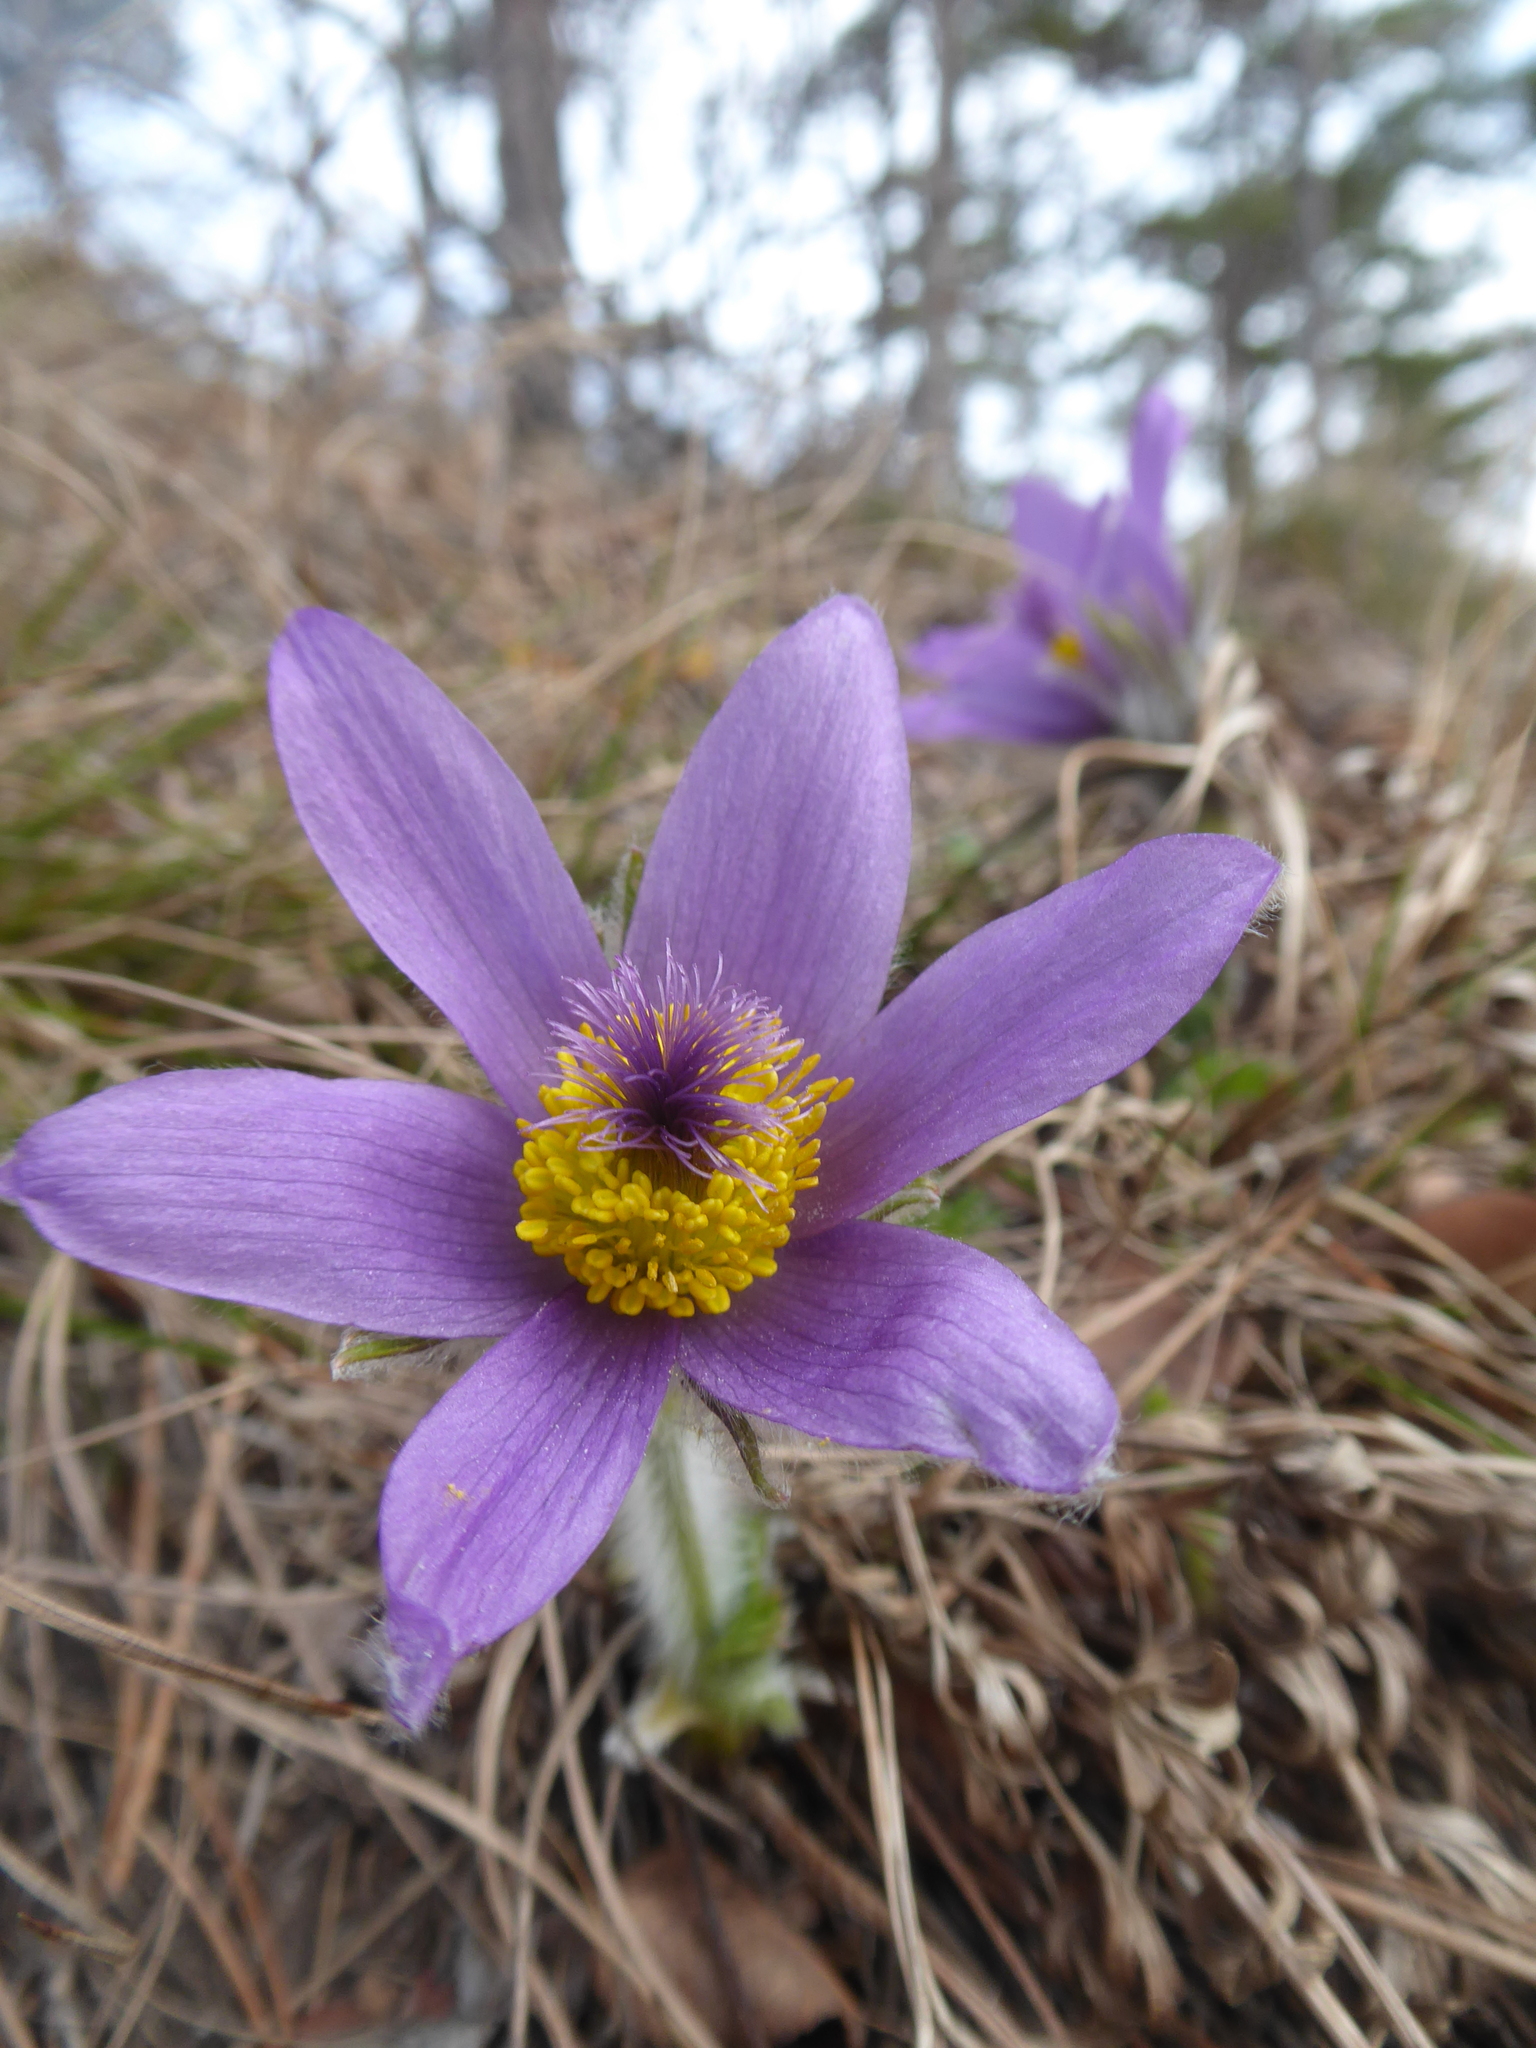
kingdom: Plantae
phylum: Tracheophyta
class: Magnoliopsida
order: Ranunculales
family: Ranunculaceae
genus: Pulsatilla
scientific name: Pulsatilla grandis
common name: Greater pasque flower
